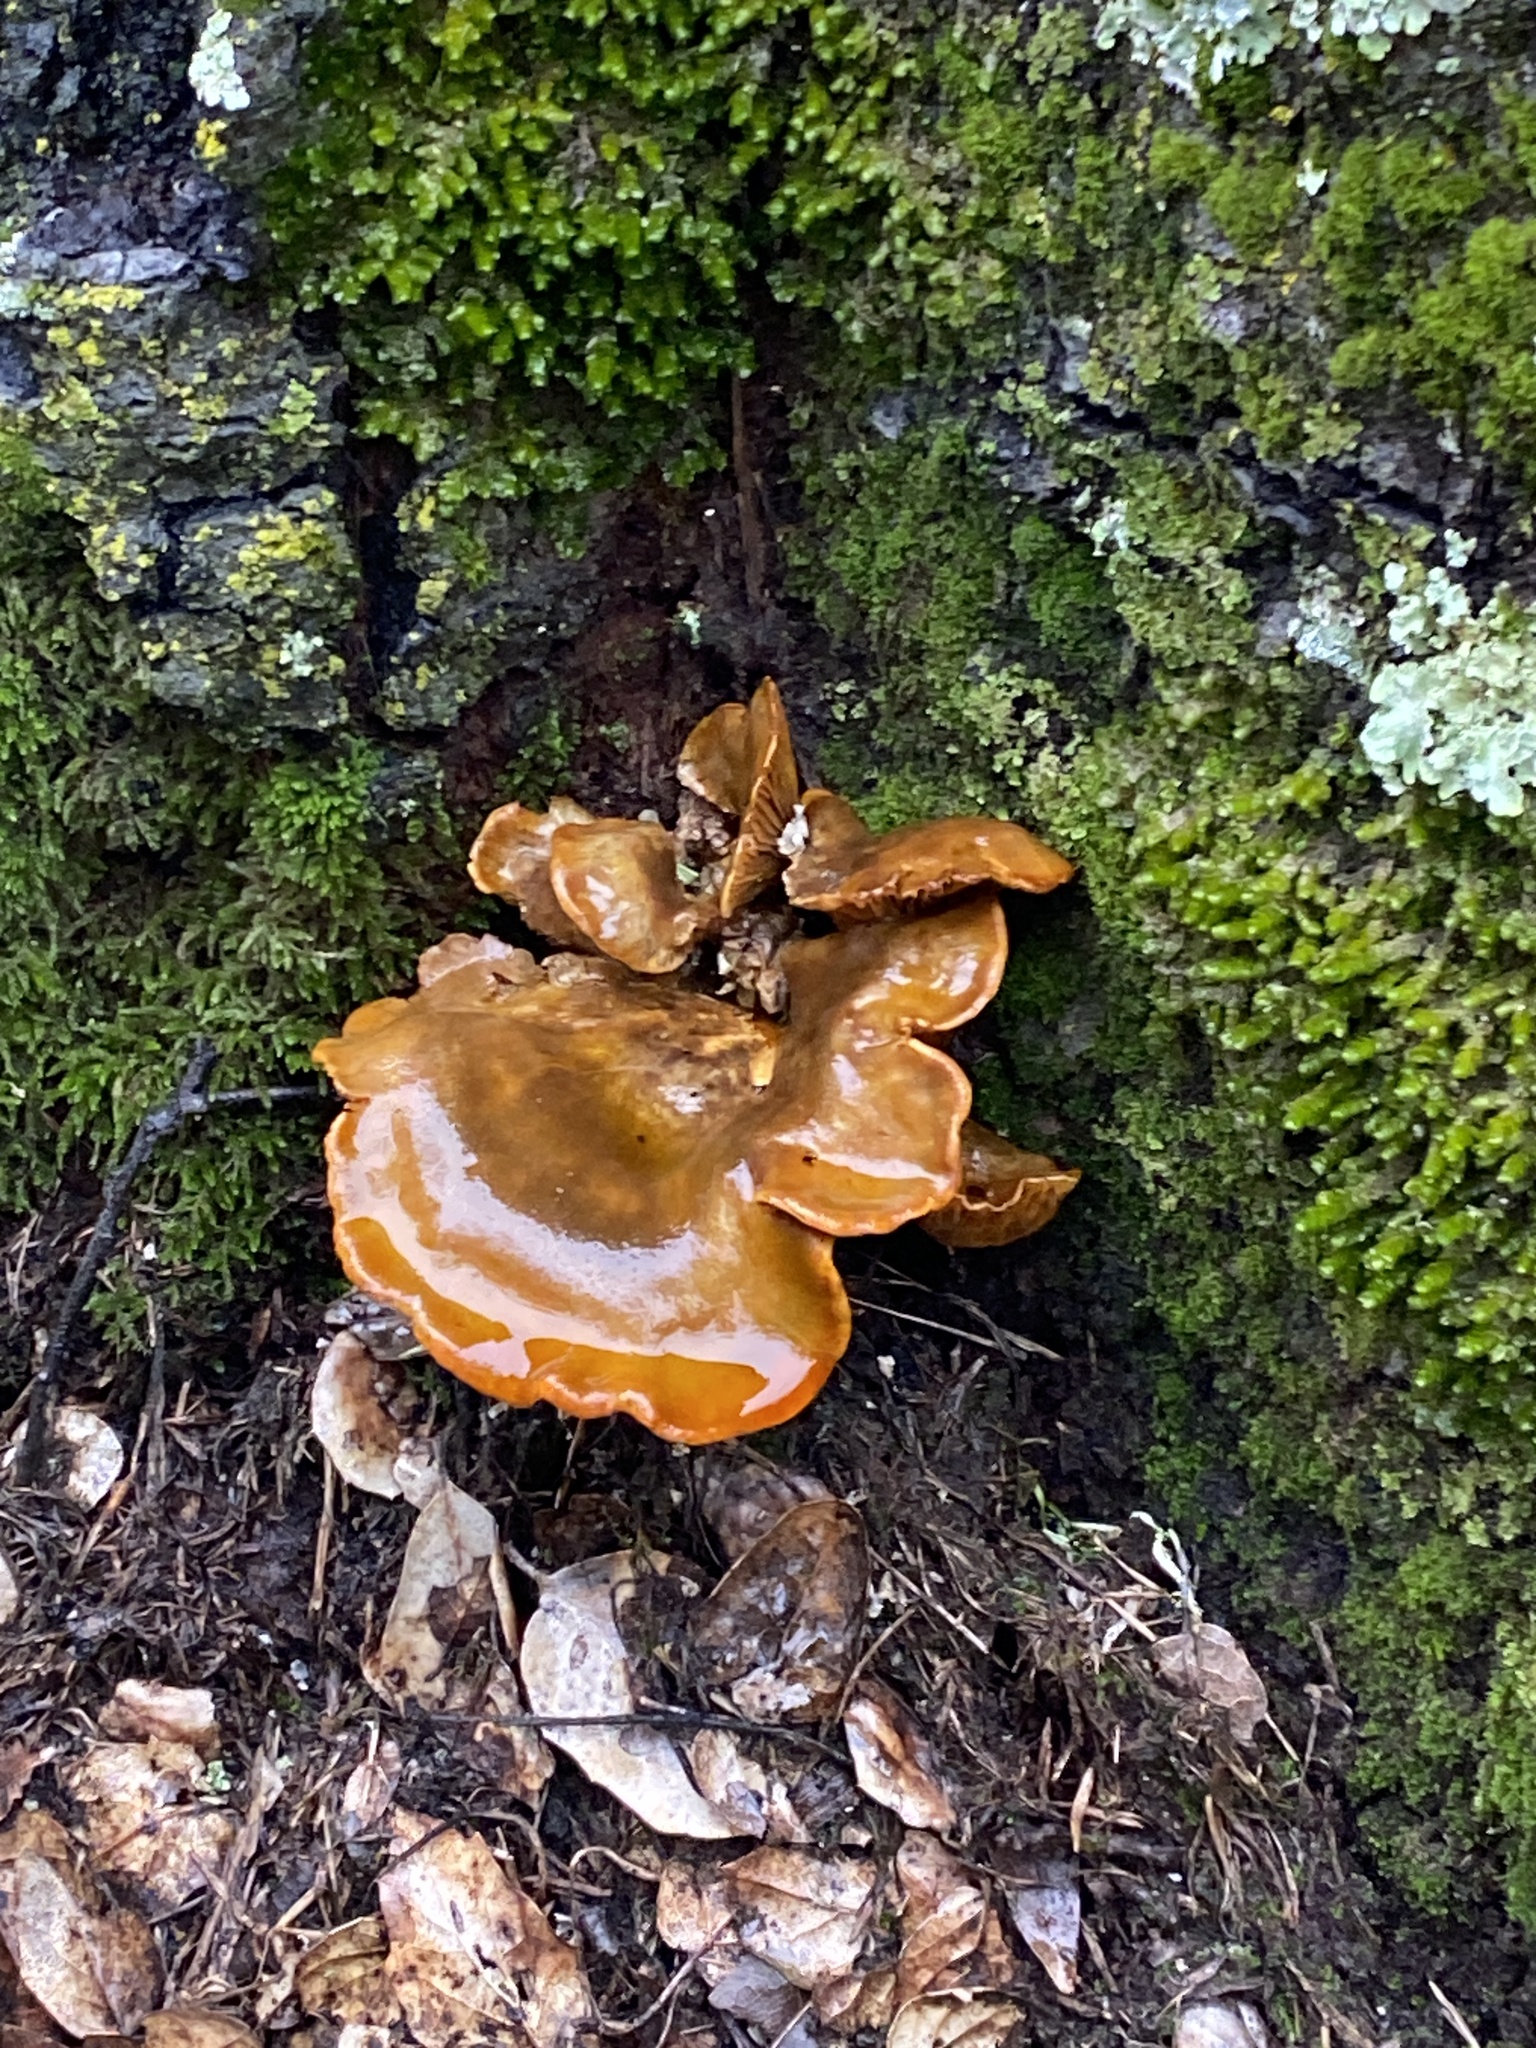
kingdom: Fungi
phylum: Basidiomycota
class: Agaricomycetes
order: Agaricales
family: Omphalotaceae
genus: Omphalotus
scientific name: Omphalotus olivascens
